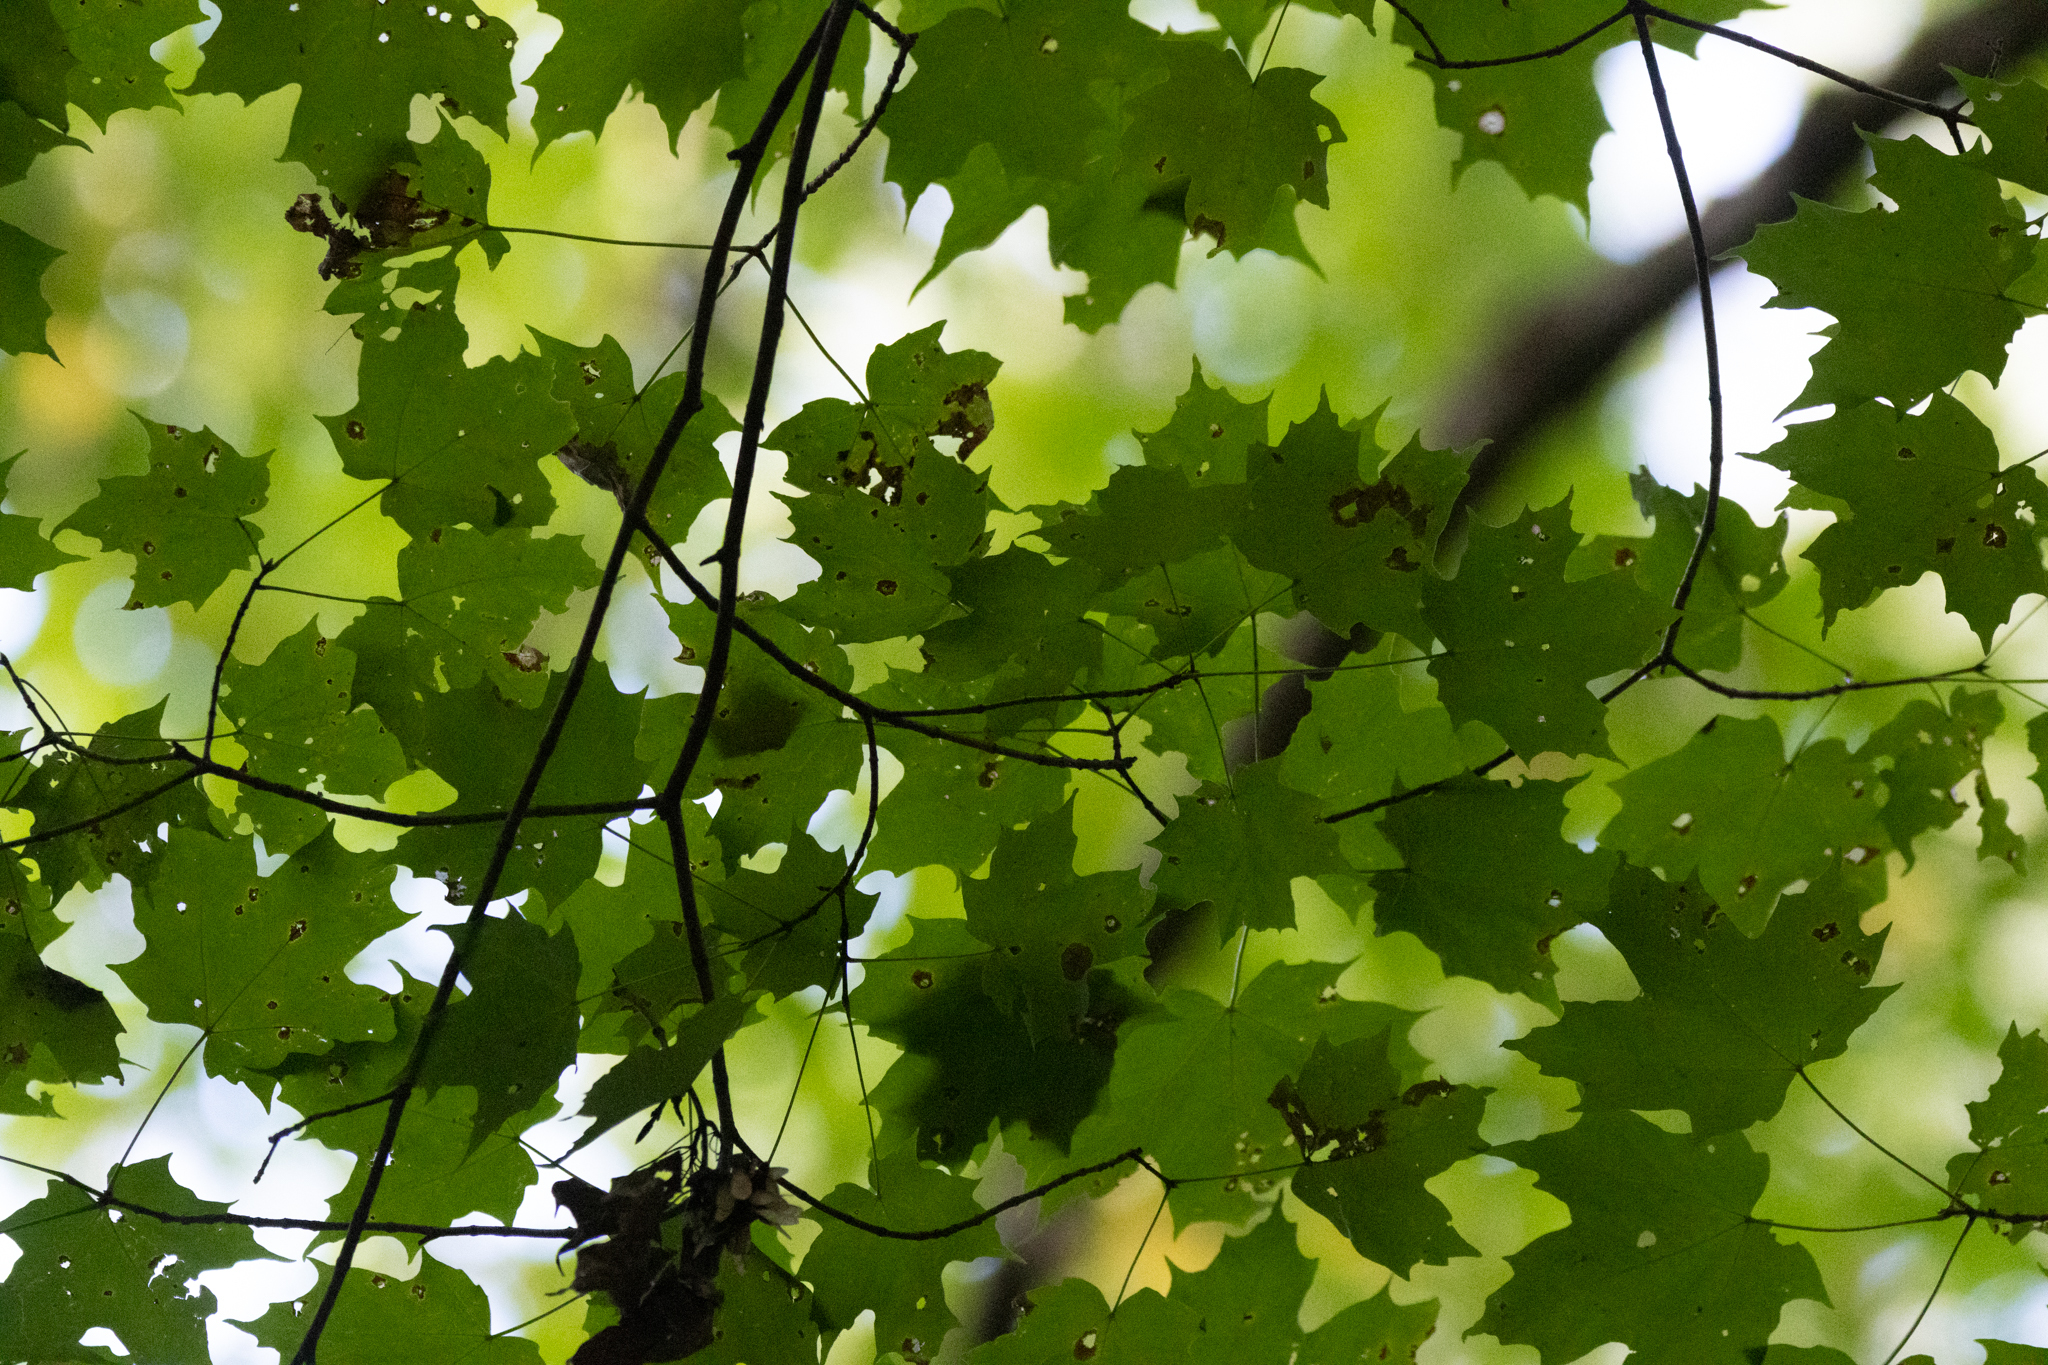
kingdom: Plantae
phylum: Tracheophyta
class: Magnoliopsida
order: Sapindales
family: Sapindaceae
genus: Acer
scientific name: Acer saccharum
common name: Sugar maple
